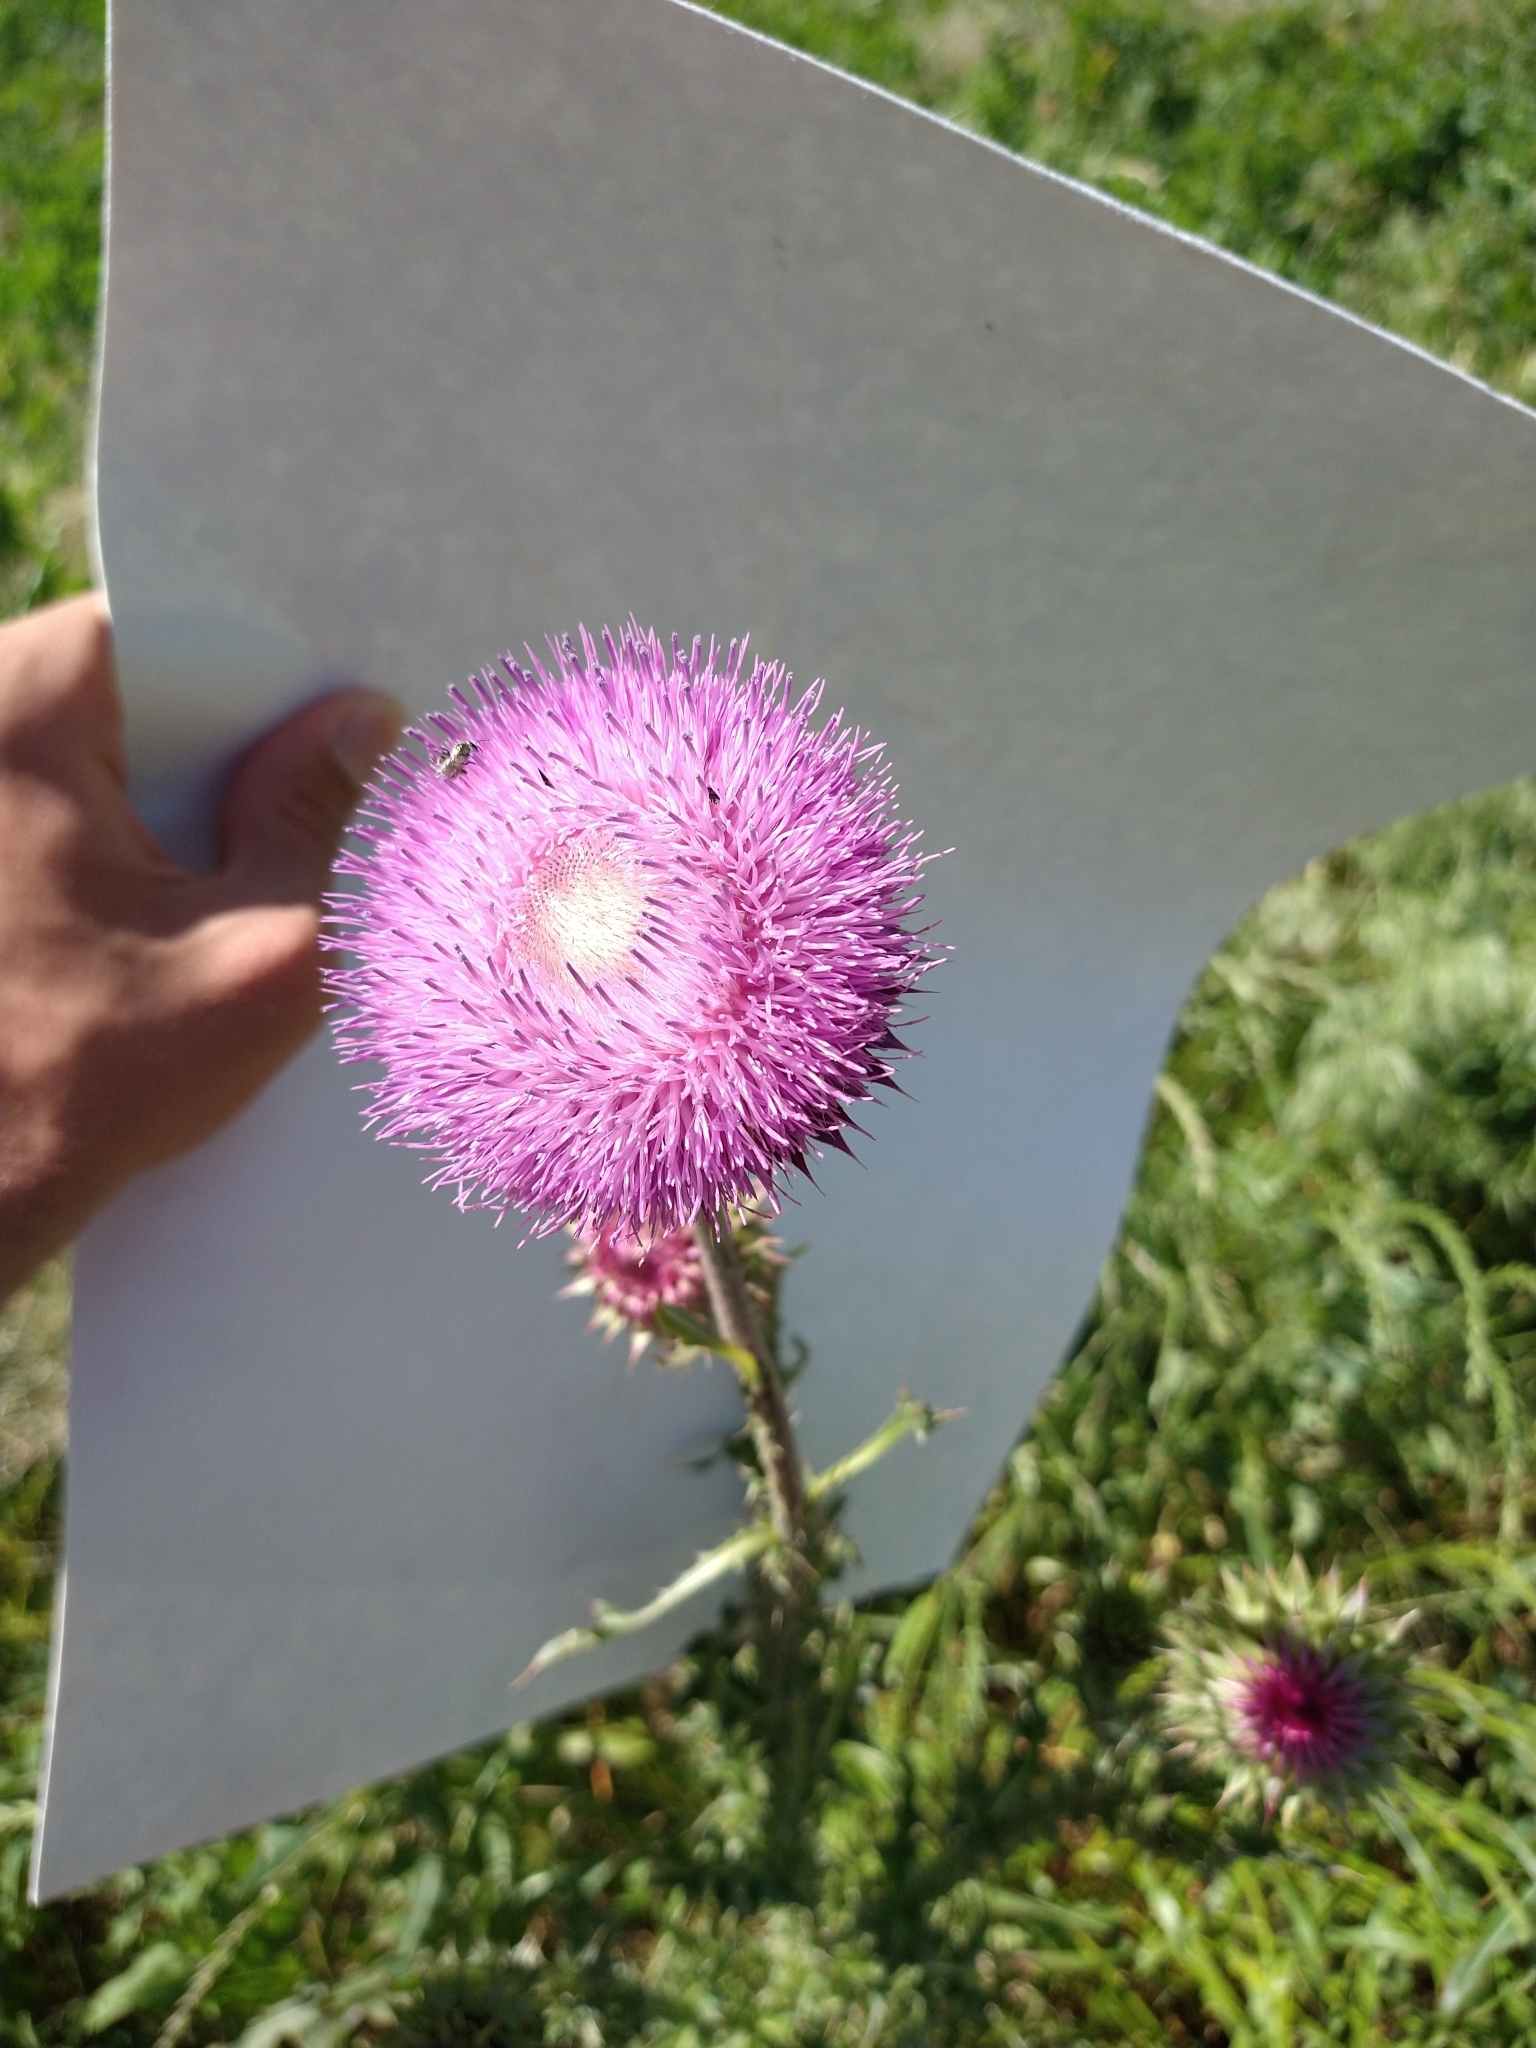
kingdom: Plantae
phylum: Tracheophyta
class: Magnoliopsida
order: Asterales
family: Asteraceae
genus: Carduus
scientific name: Carduus nutans
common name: Musk thistle
